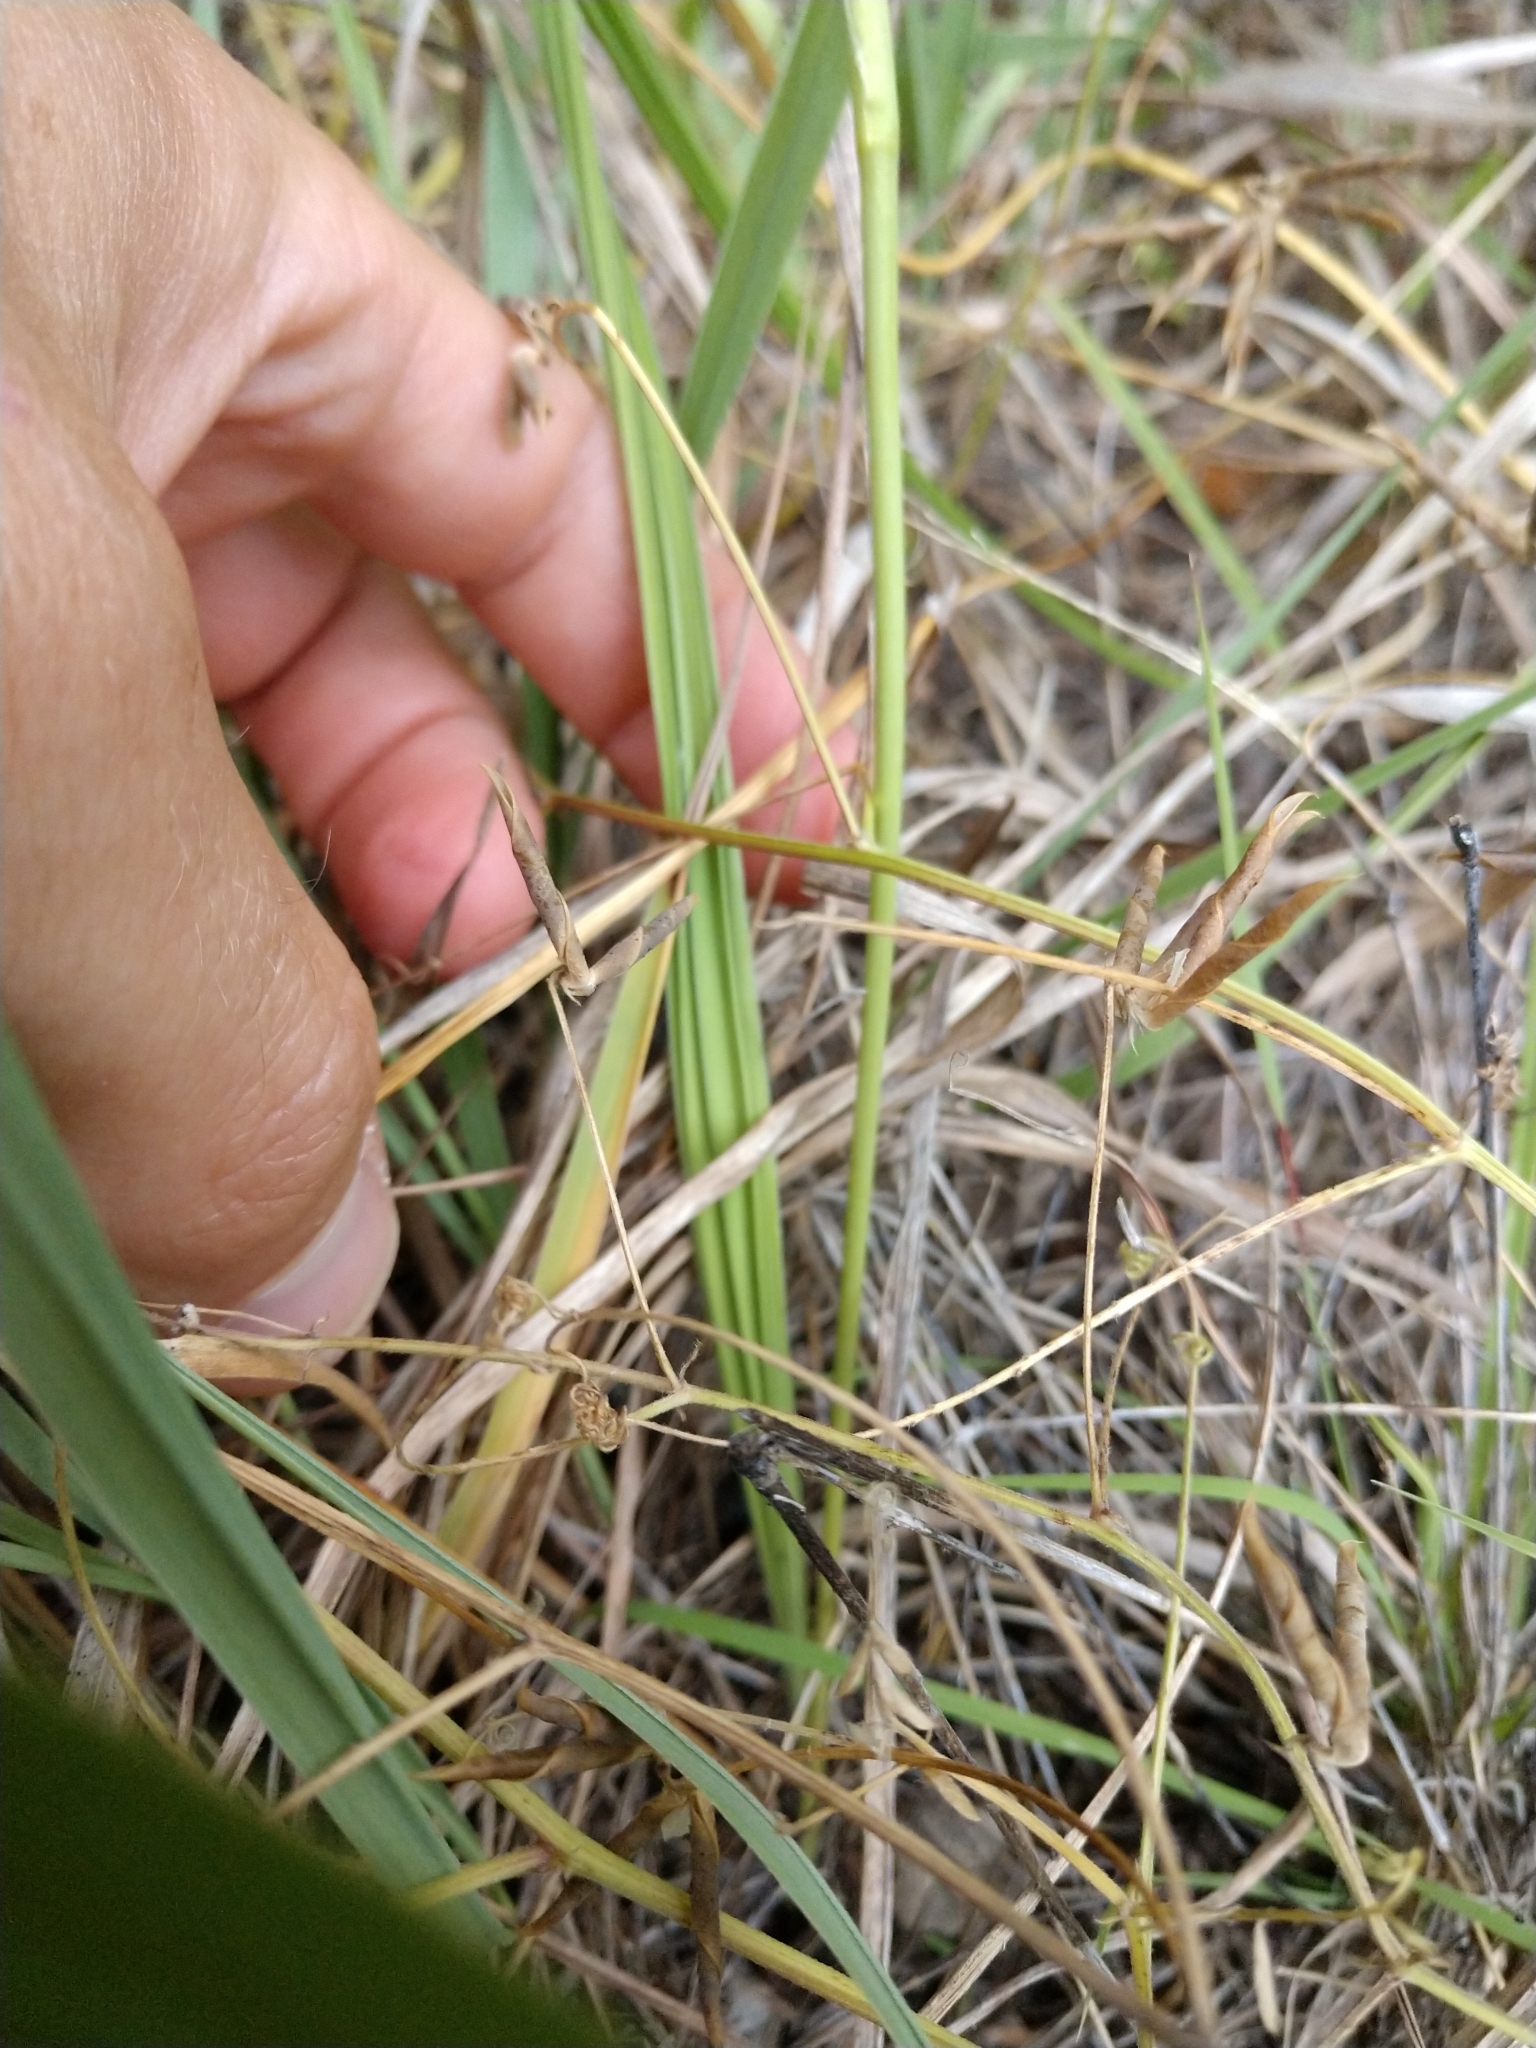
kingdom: Plantae
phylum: Tracheophyta
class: Liliopsida
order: Asparagales
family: Iridaceae
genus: Nemastylis
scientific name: Nemastylis geminiflora
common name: Prairie celestial
